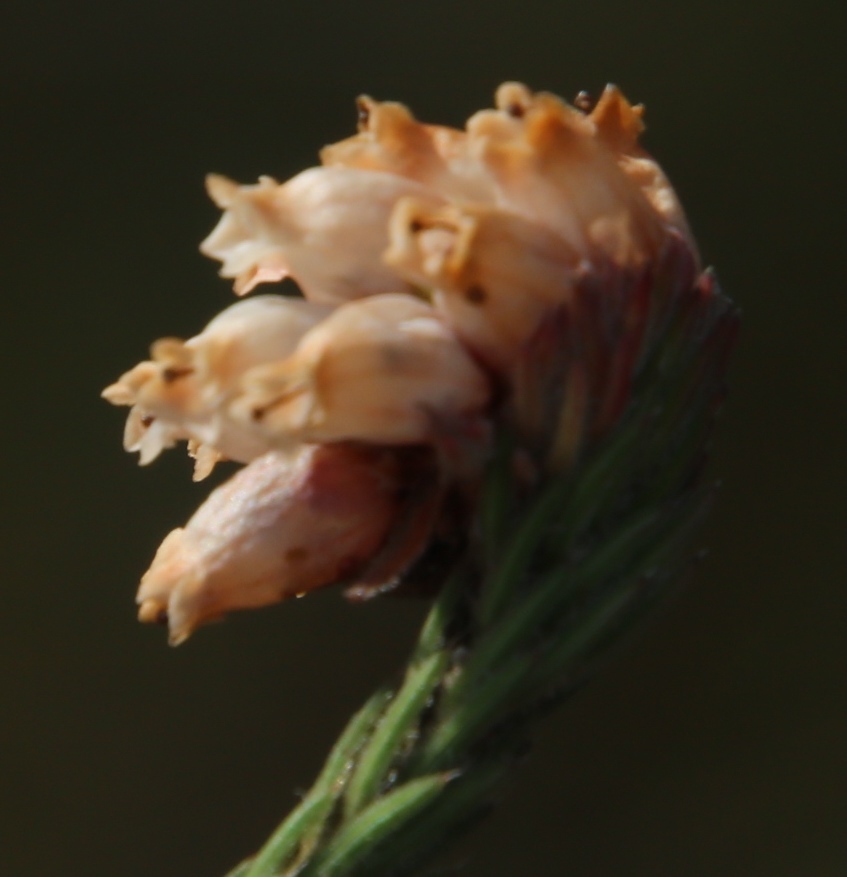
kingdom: Plantae
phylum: Tracheophyta
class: Magnoliopsida
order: Ericales
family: Ericaceae
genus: Erica
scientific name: Erica maderi
